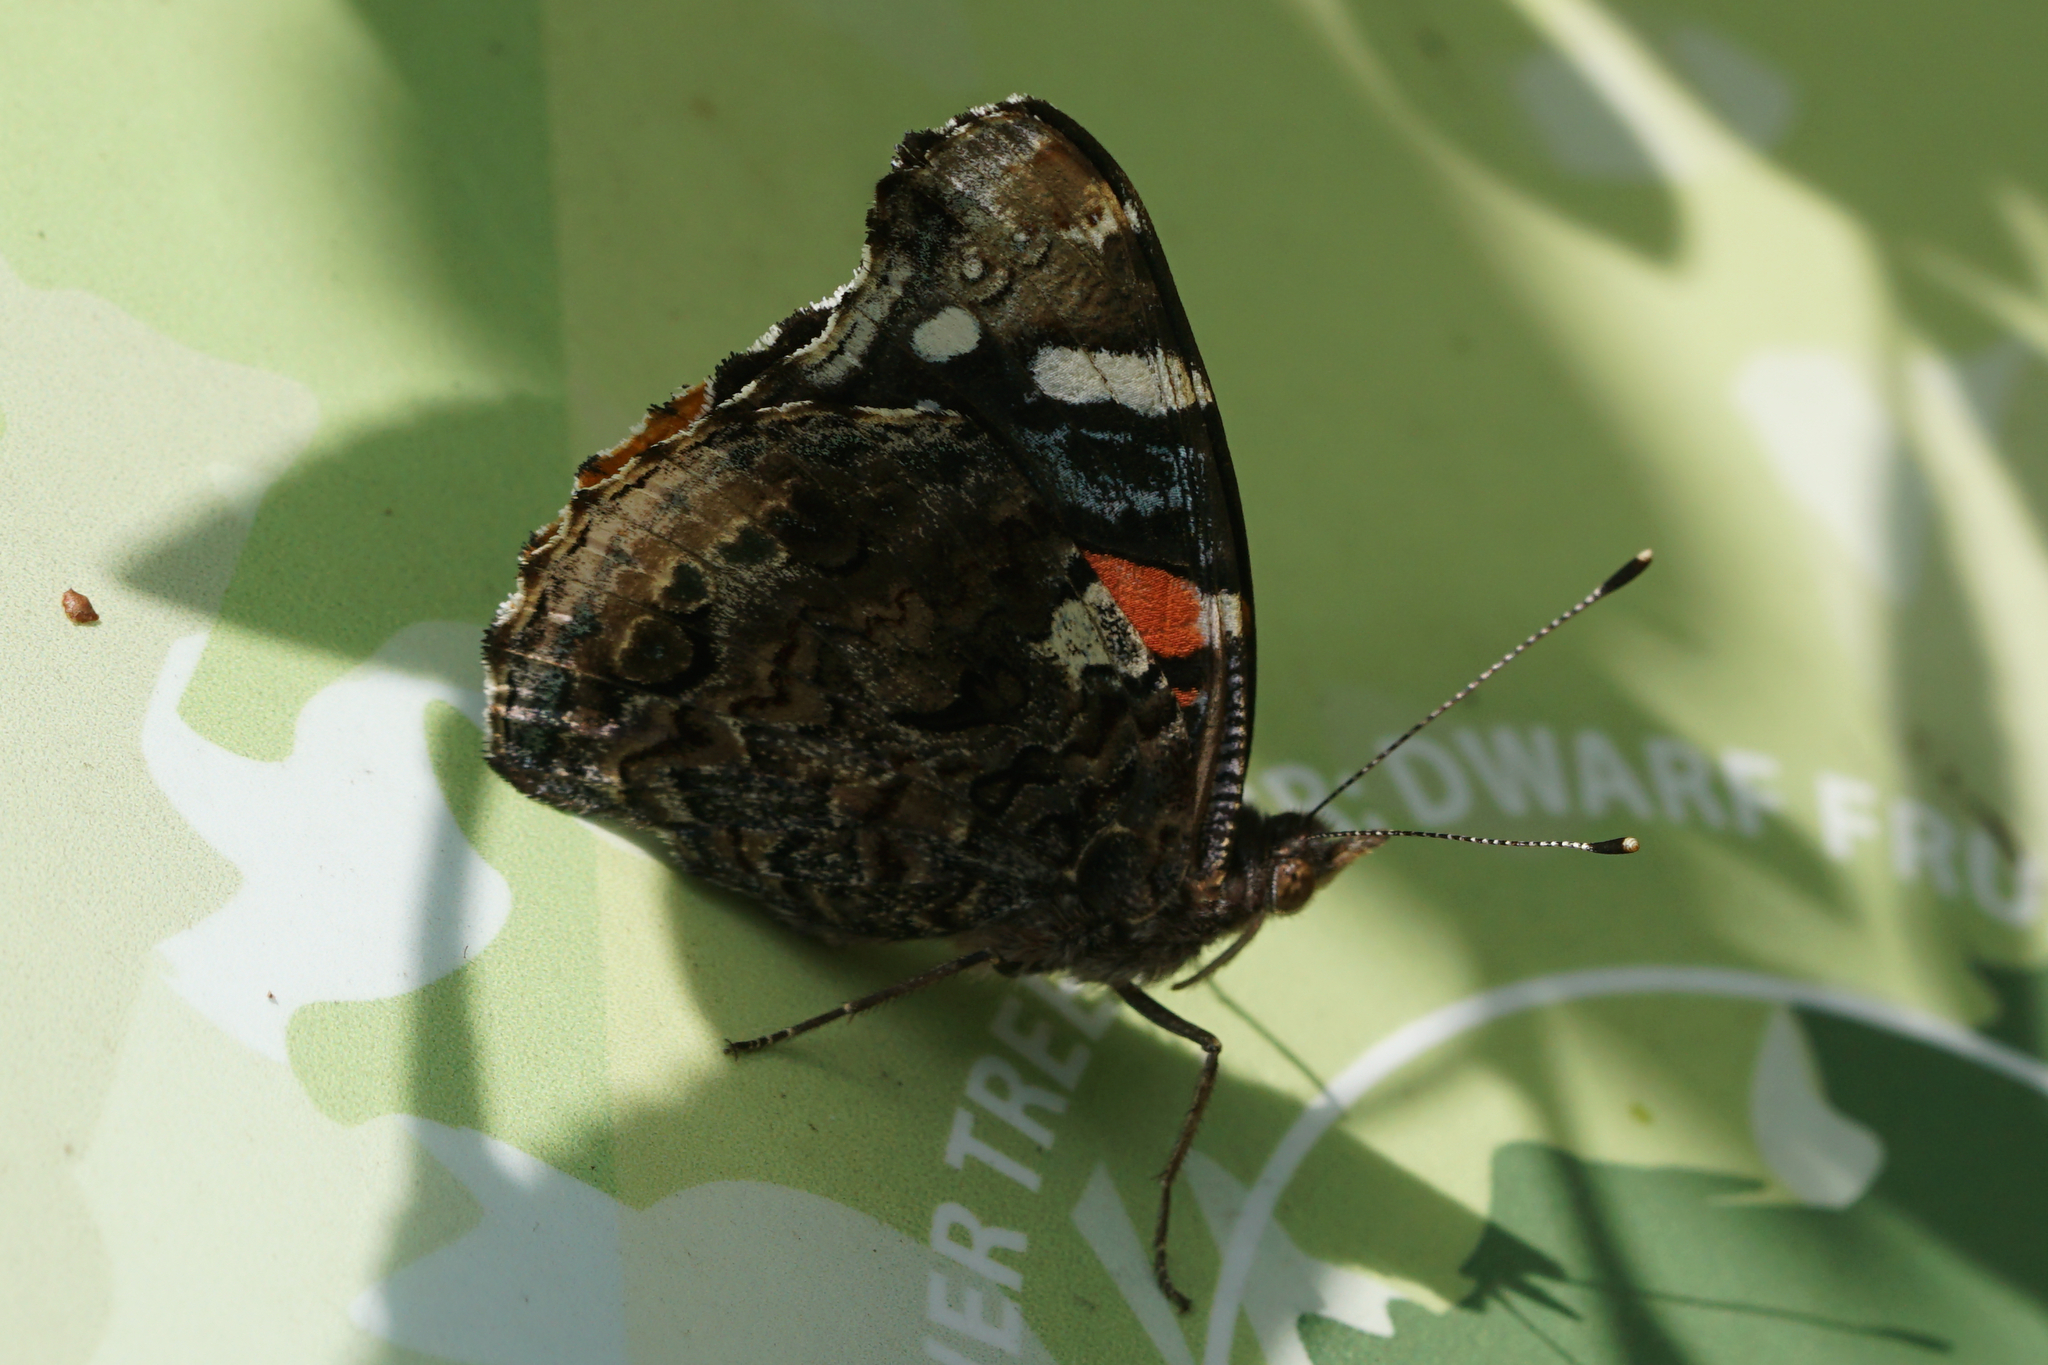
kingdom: Animalia
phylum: Arthropoda
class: Insecta
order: Lepidoptera
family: Nymphalidae
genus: Vanessa
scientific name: Vanessa atalanta
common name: Red admiral
